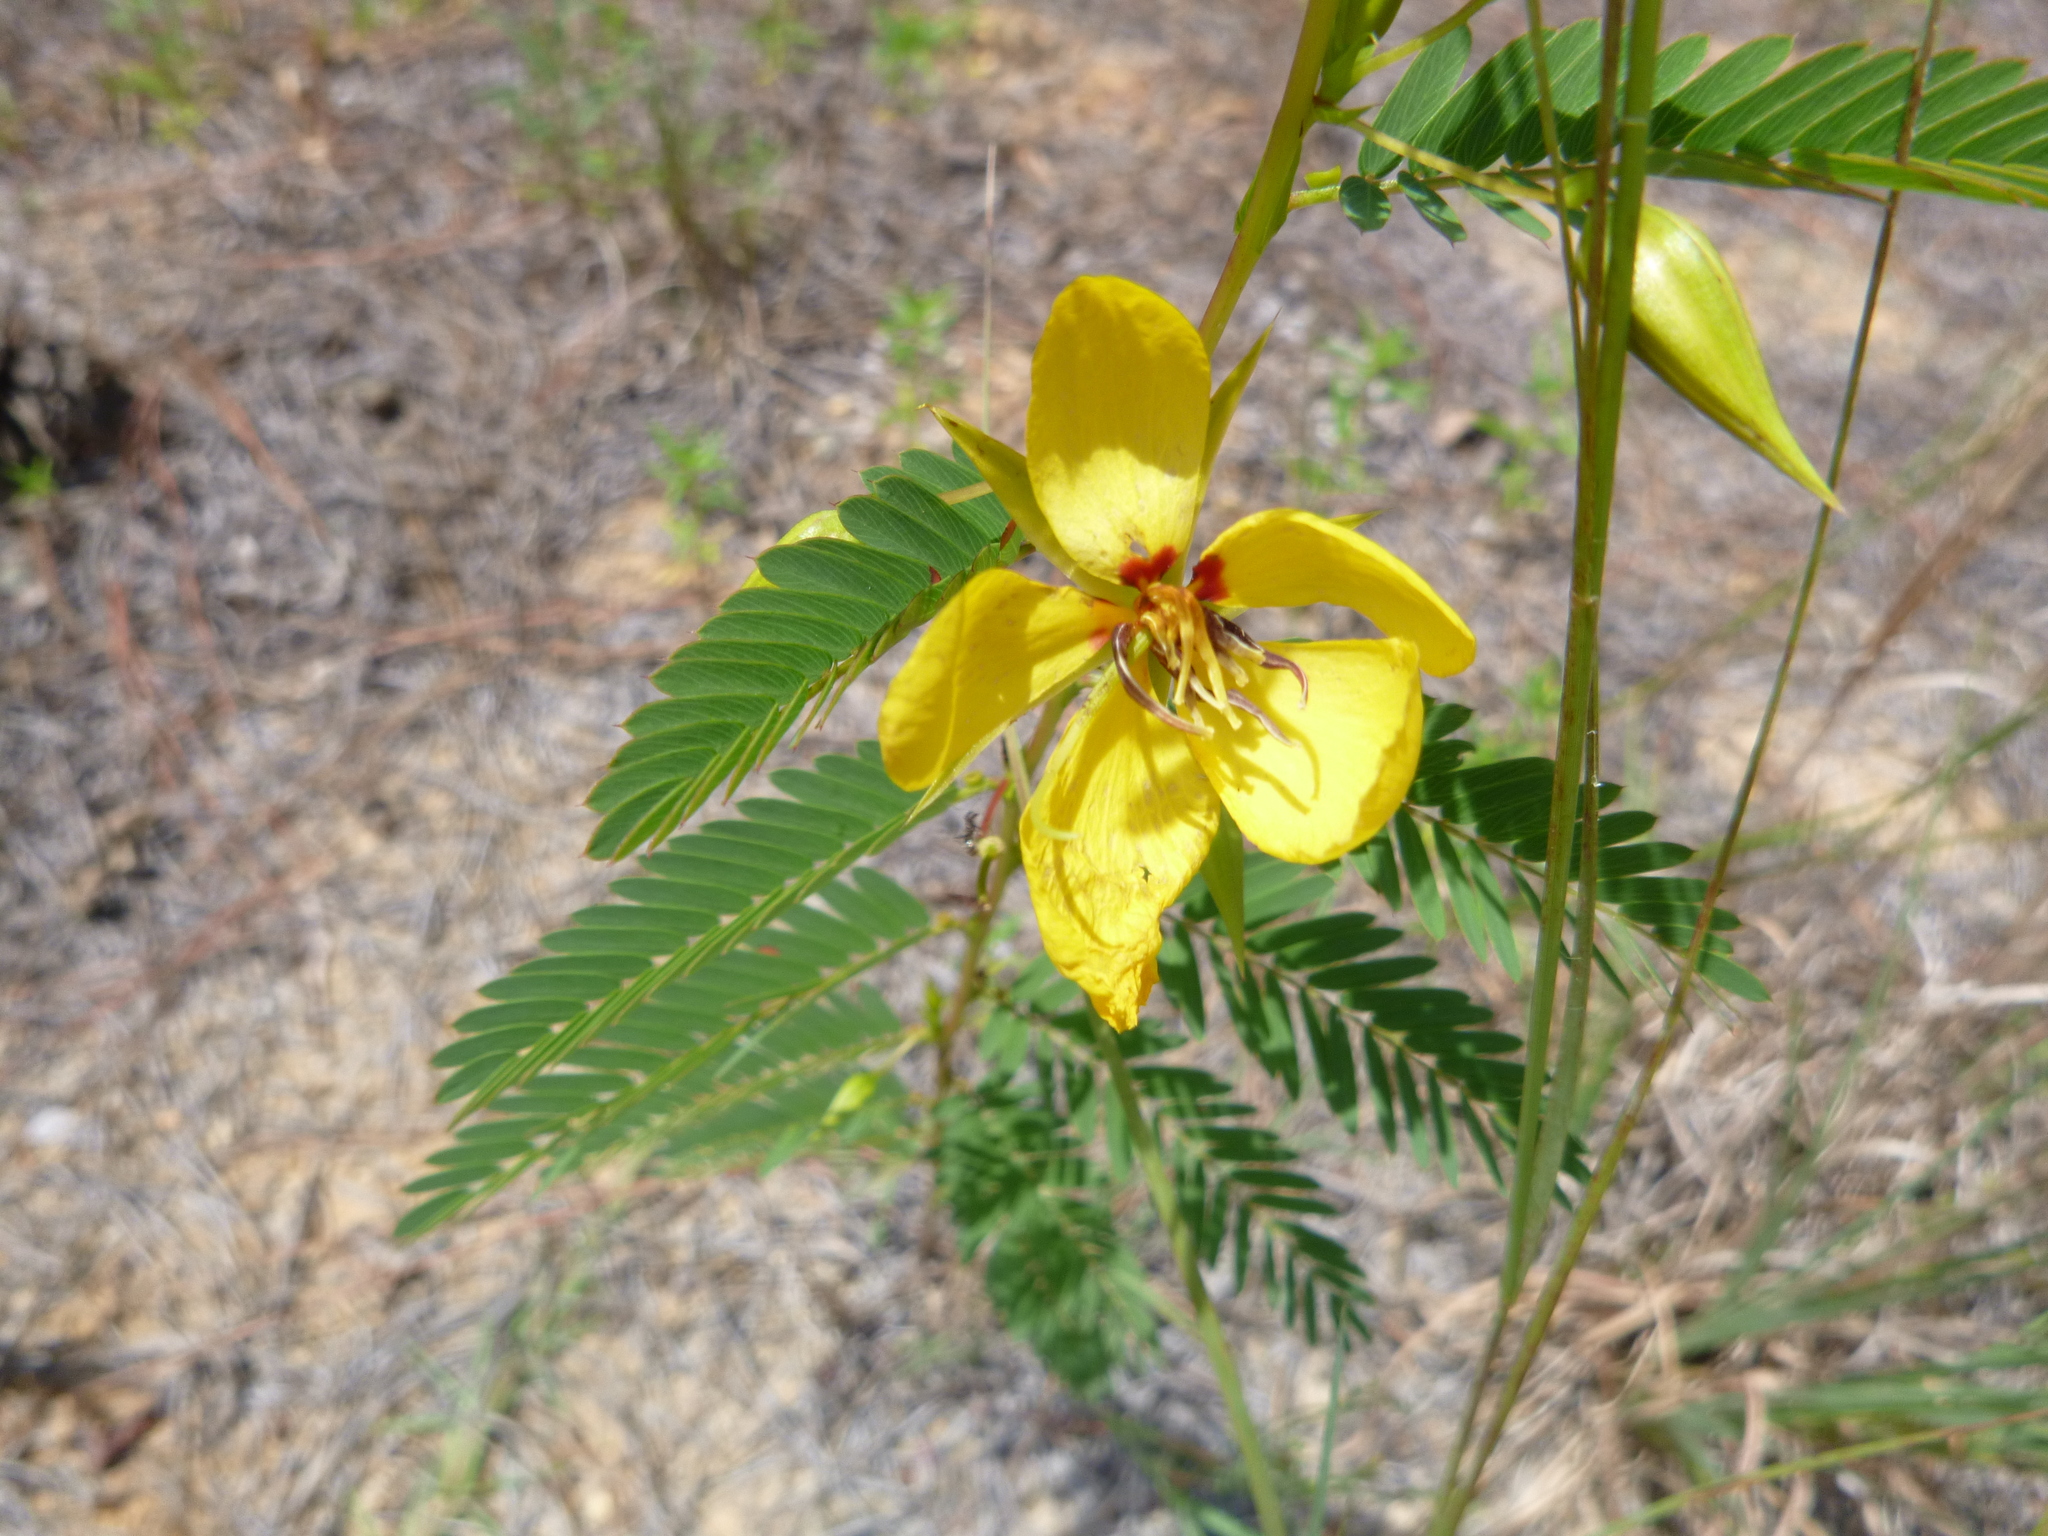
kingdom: Plantae
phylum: Tracheophyta
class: Magnoliopsida
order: Fabales
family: Fabaceae
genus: Chamaecrista
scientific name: Chamaecrista fasciculata
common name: Golden cassia
